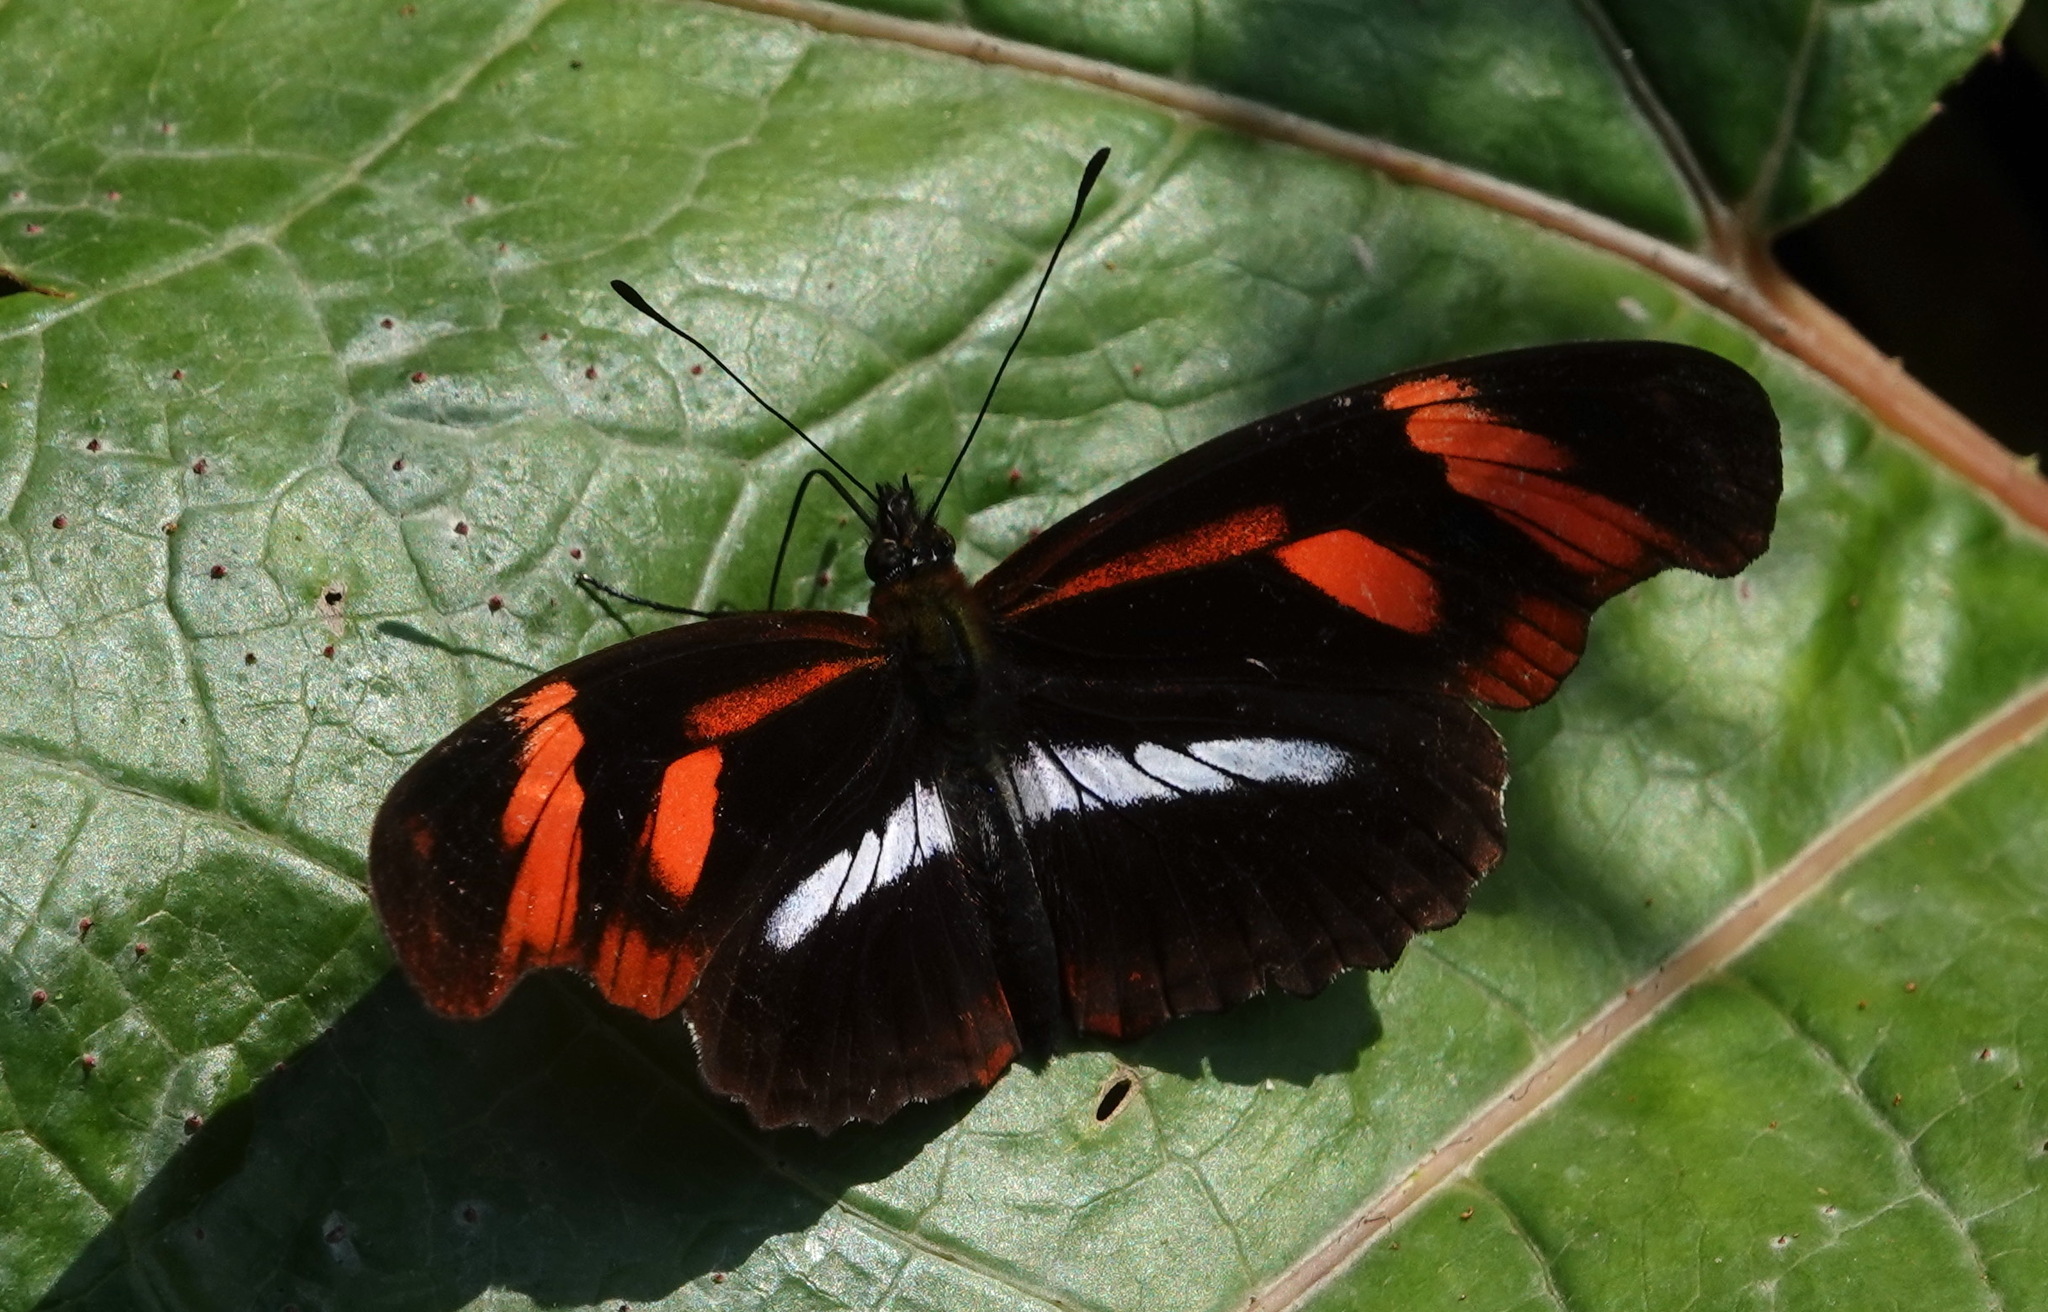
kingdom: Animalia
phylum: Arthropoda
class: Insecta
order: Lepidoptera
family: Nymphalidae
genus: Podotricha
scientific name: Podotricha telesiphe
